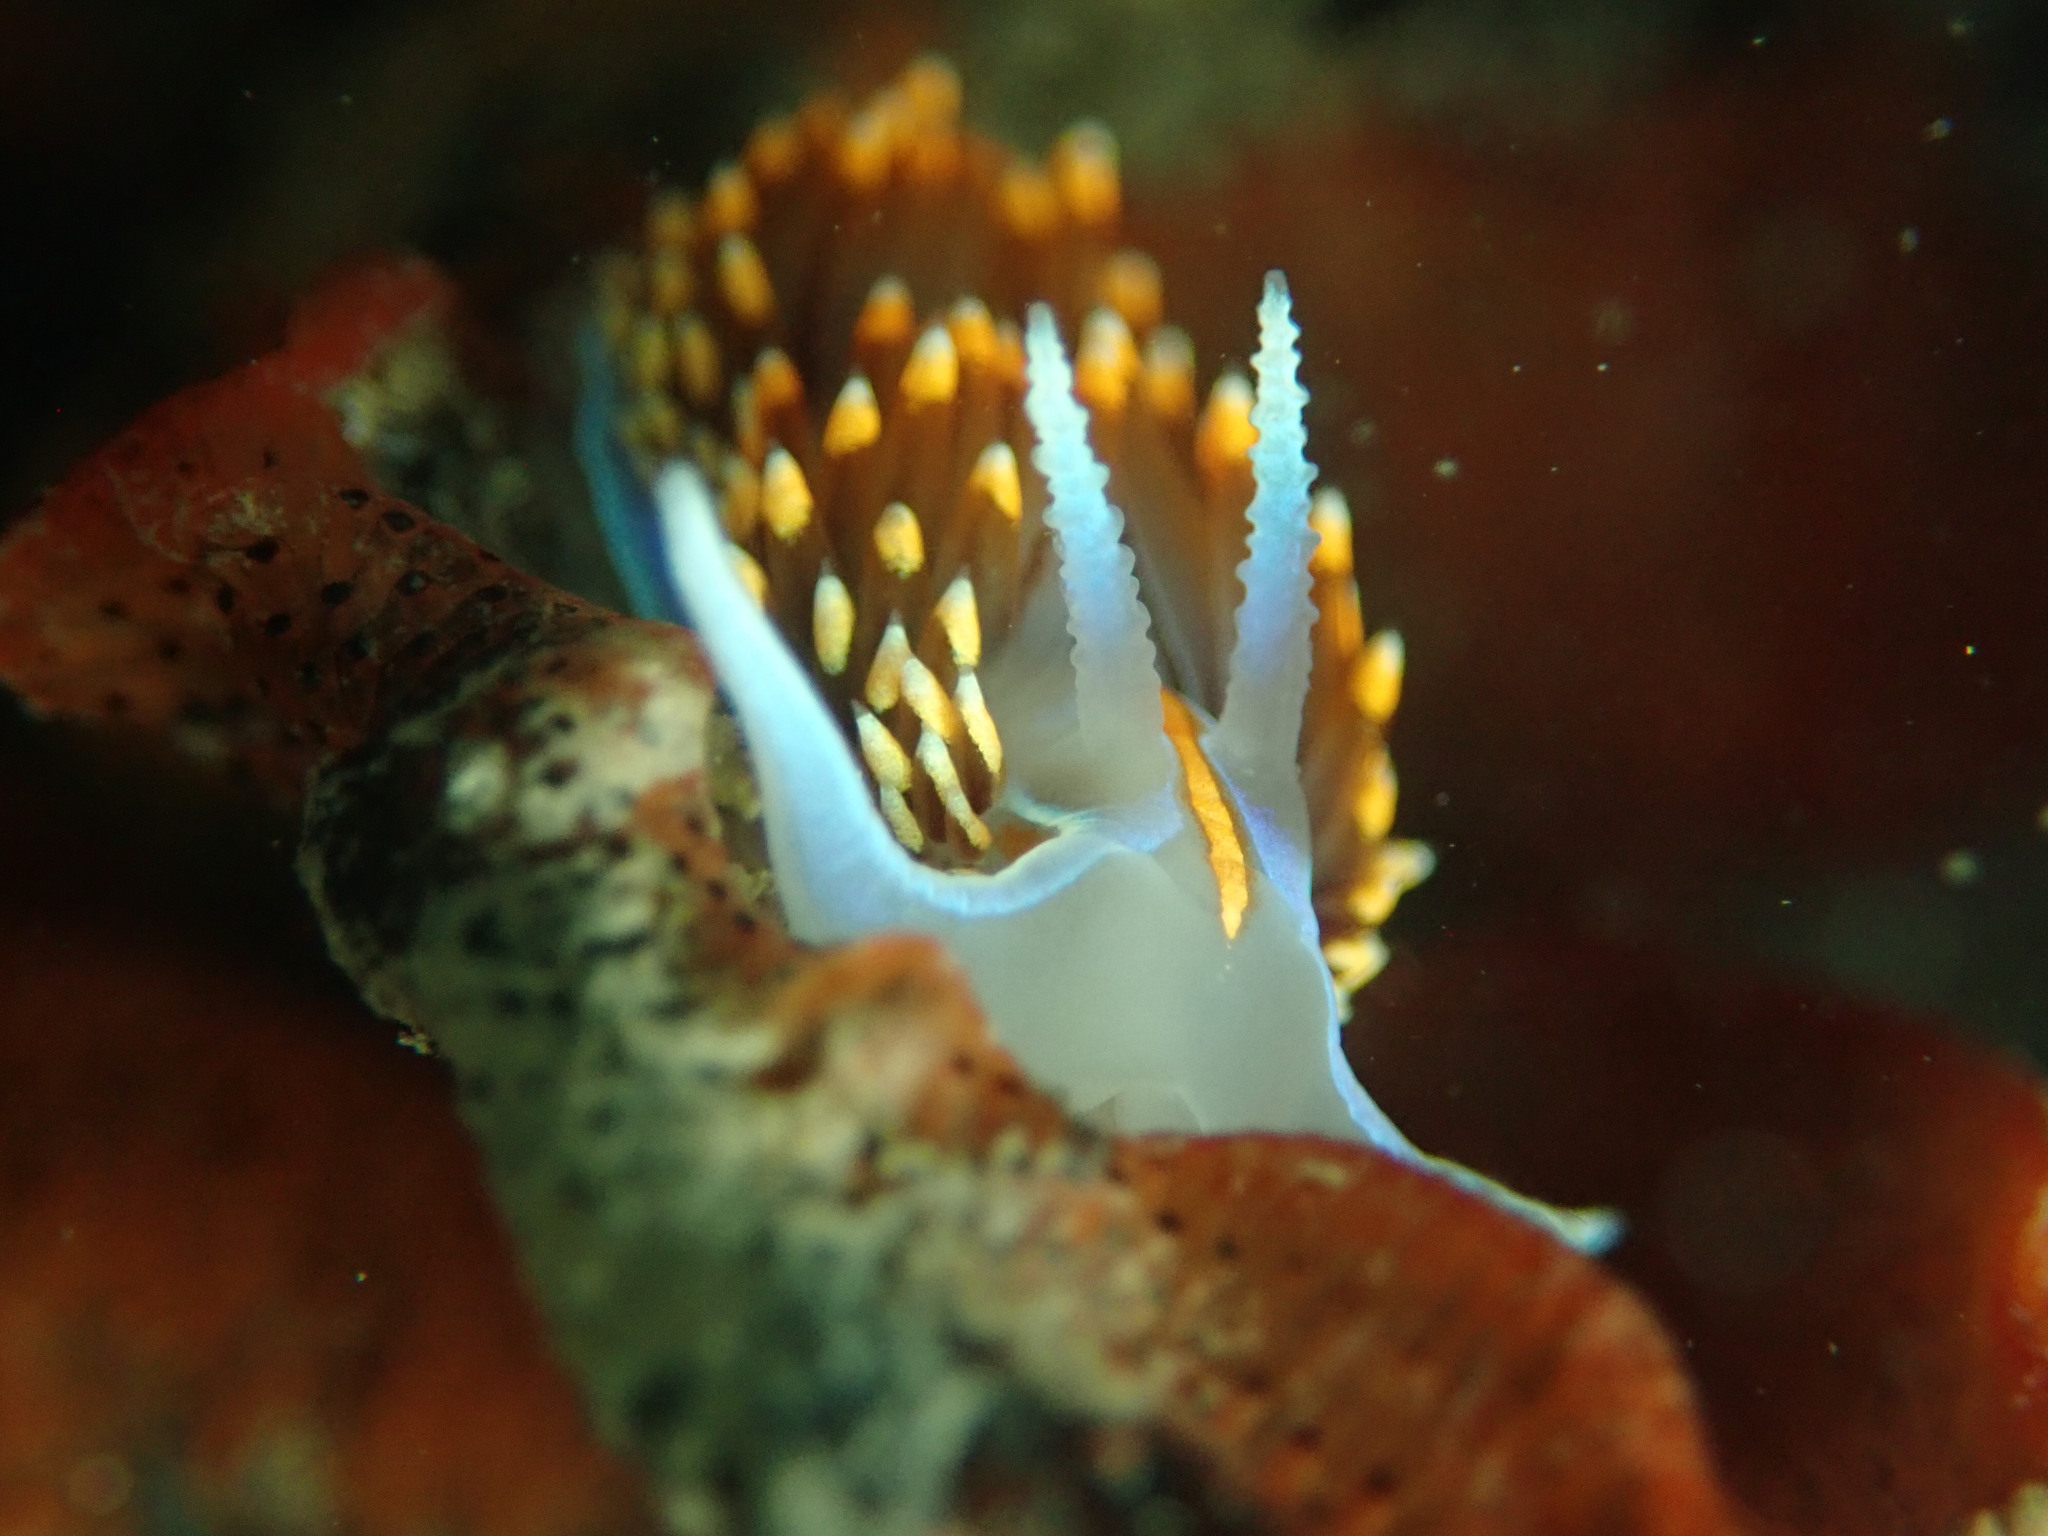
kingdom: Animalia
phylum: Mollusca
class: Gastropoda
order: Nudibranchia
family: Myrrhinidae
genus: Hermissenda
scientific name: Hermissenda opalescens
